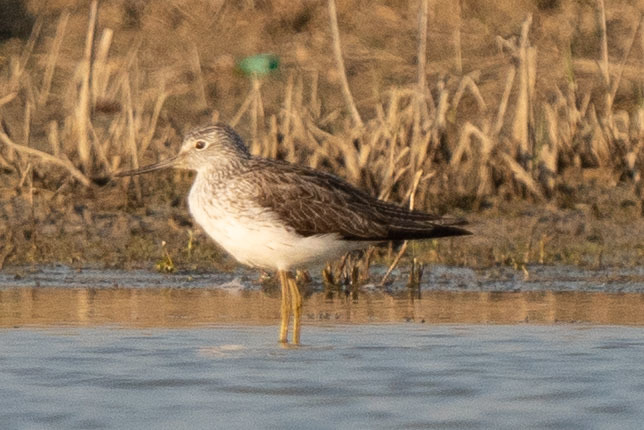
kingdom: Animalia
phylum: Chordata
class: Aves
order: Charadriiformes
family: Scolopacidae
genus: Tringa
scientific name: Tringa nebularia
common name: Common greenshank
